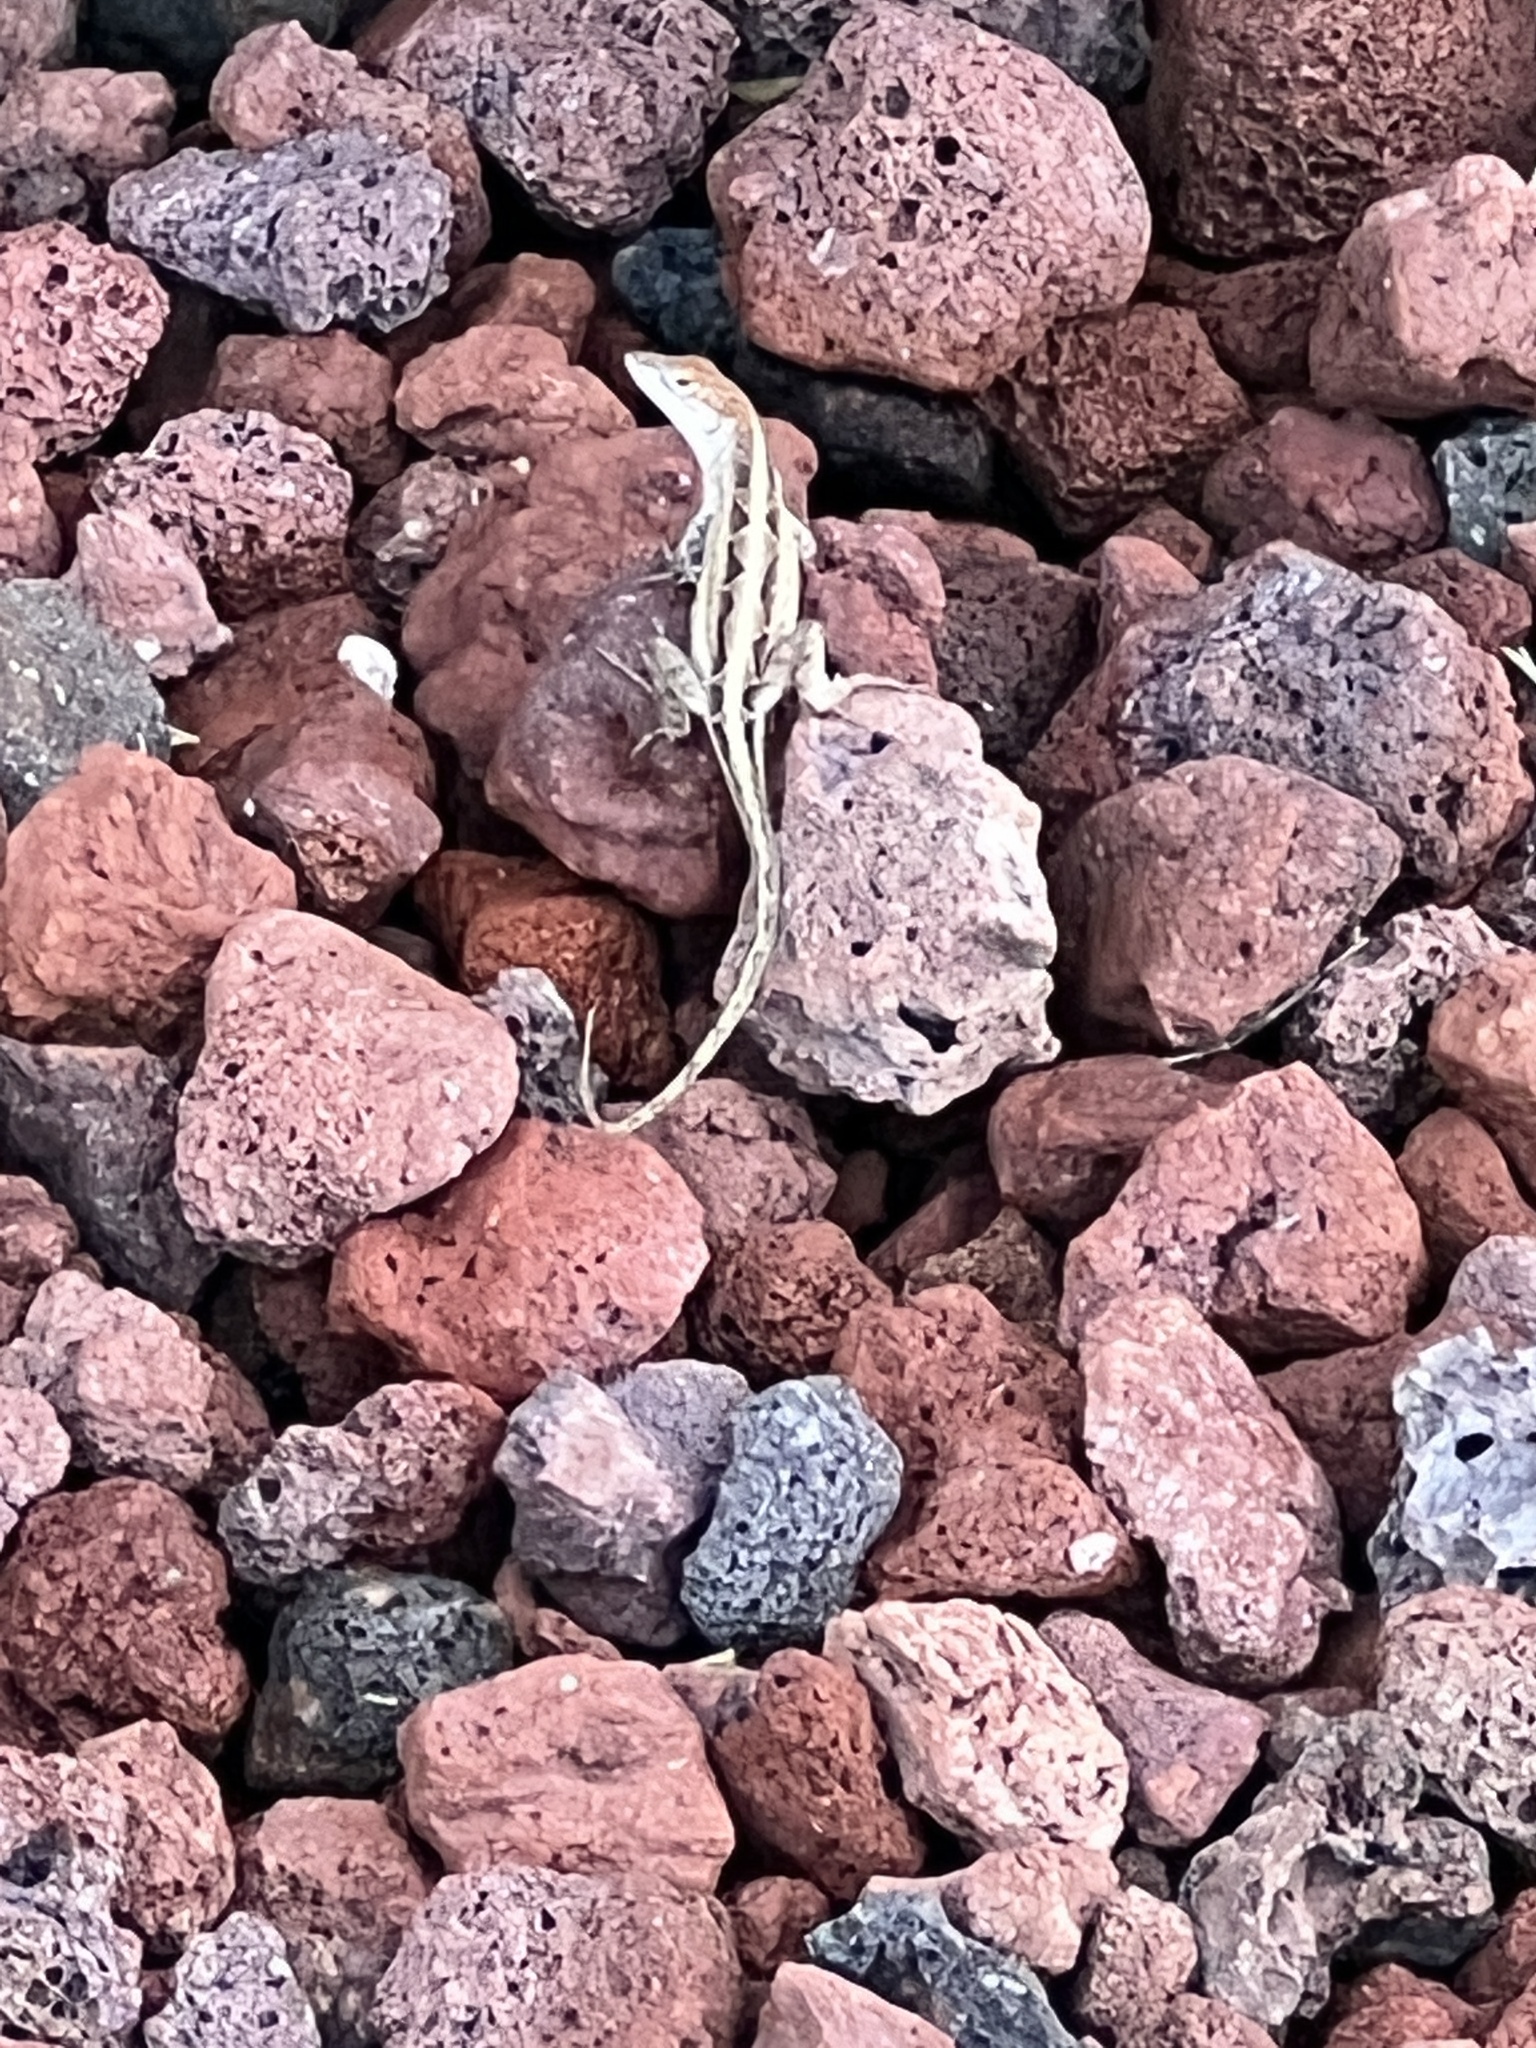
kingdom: Animalia
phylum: Chordata
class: Squamata
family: Dactyloidae
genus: Anolis
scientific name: Anolis sagrei
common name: Brown anole
